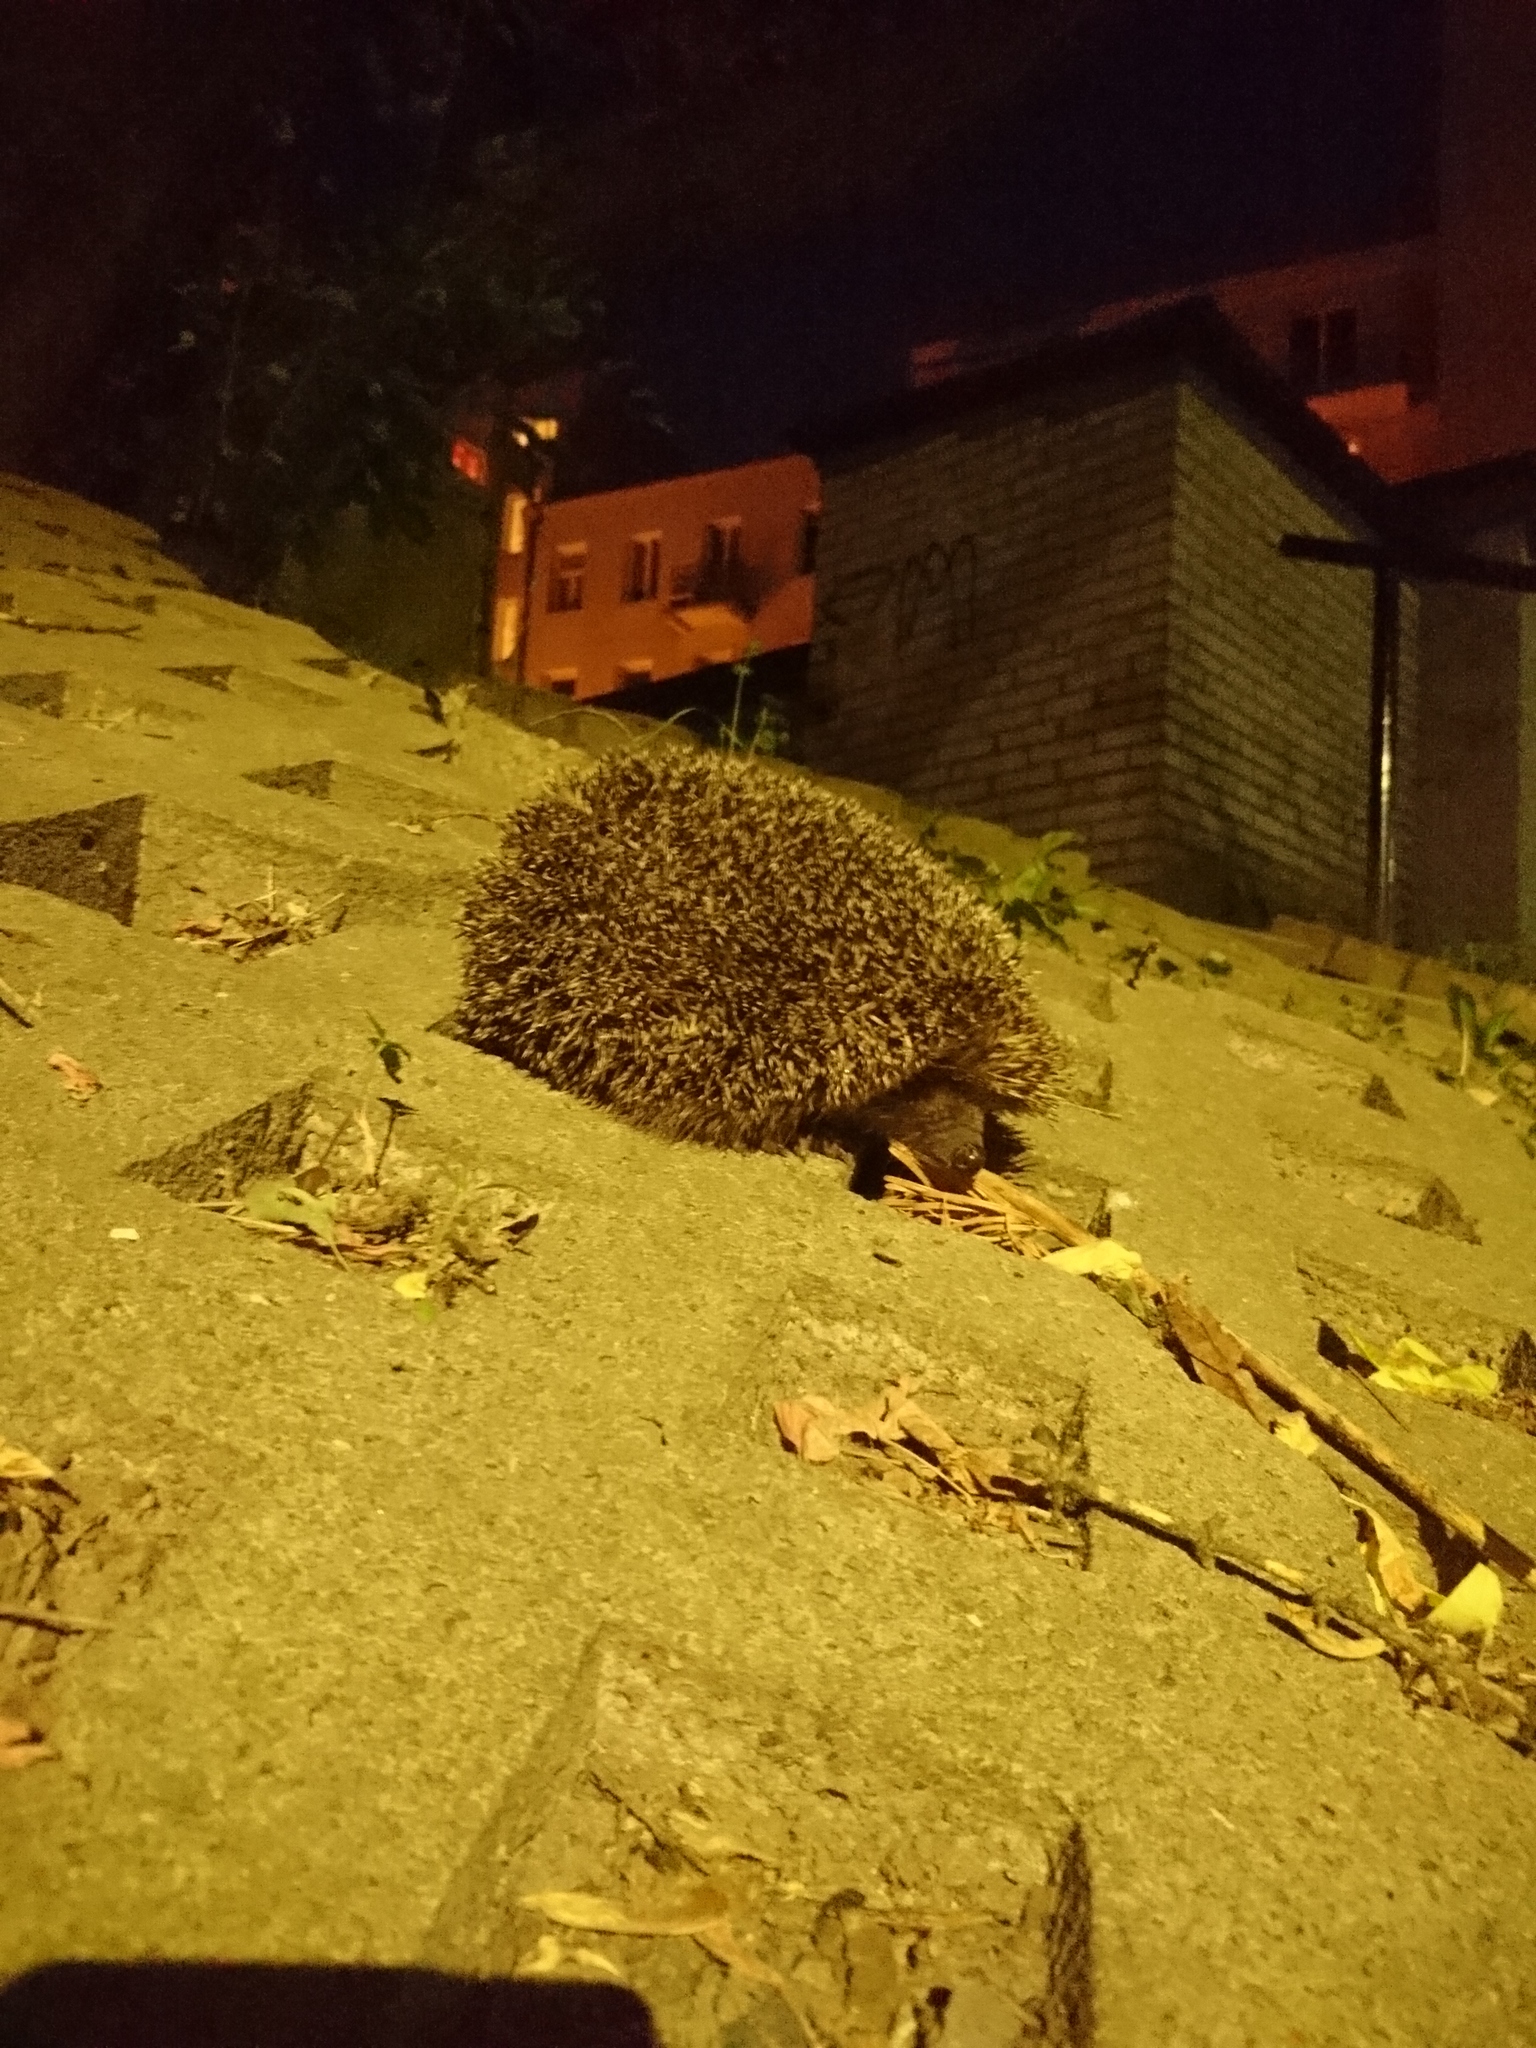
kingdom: Animalia
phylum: Chordata
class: Mammalia
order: Erinaceomorpha
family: Erinaceidae
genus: Erinaceus
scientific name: Erinaceus roumanicus
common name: Northern white-breasted hedgehog
